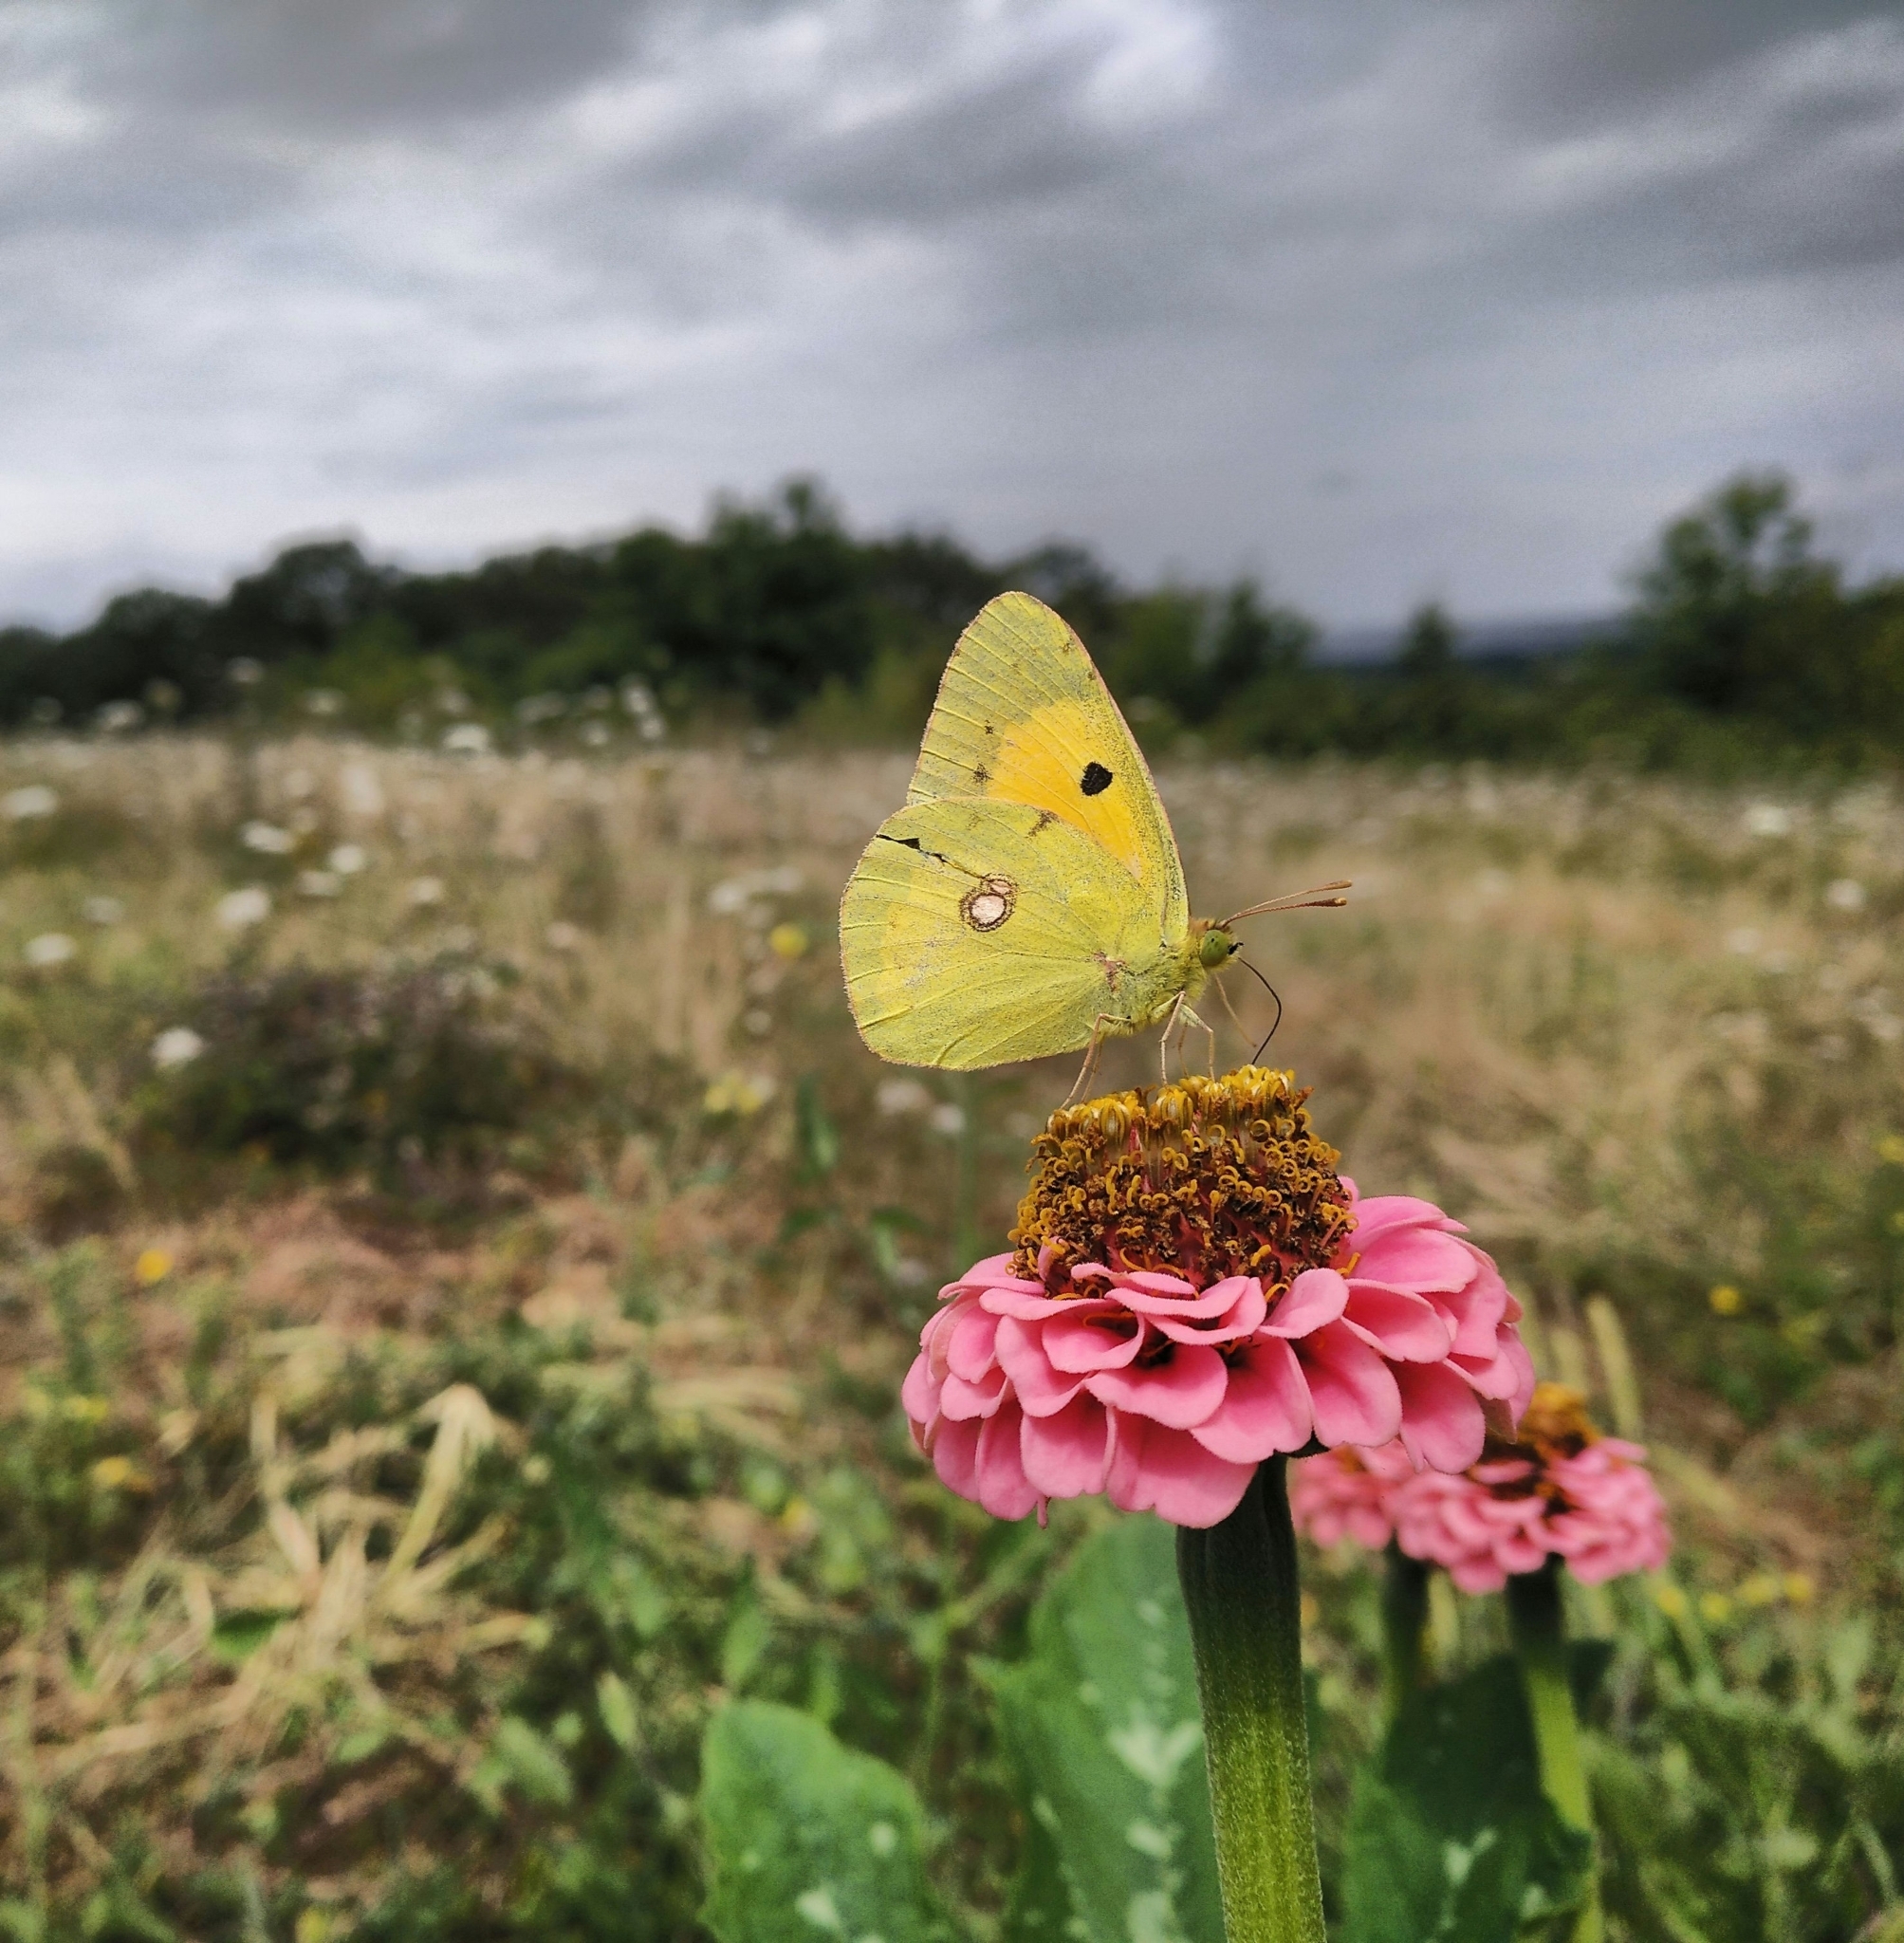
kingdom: Animalia
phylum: Arthropoda
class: Insecta
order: Lepidoptera
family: Pieridae
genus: Colias
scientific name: Colias croceus
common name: Clouded yellow
